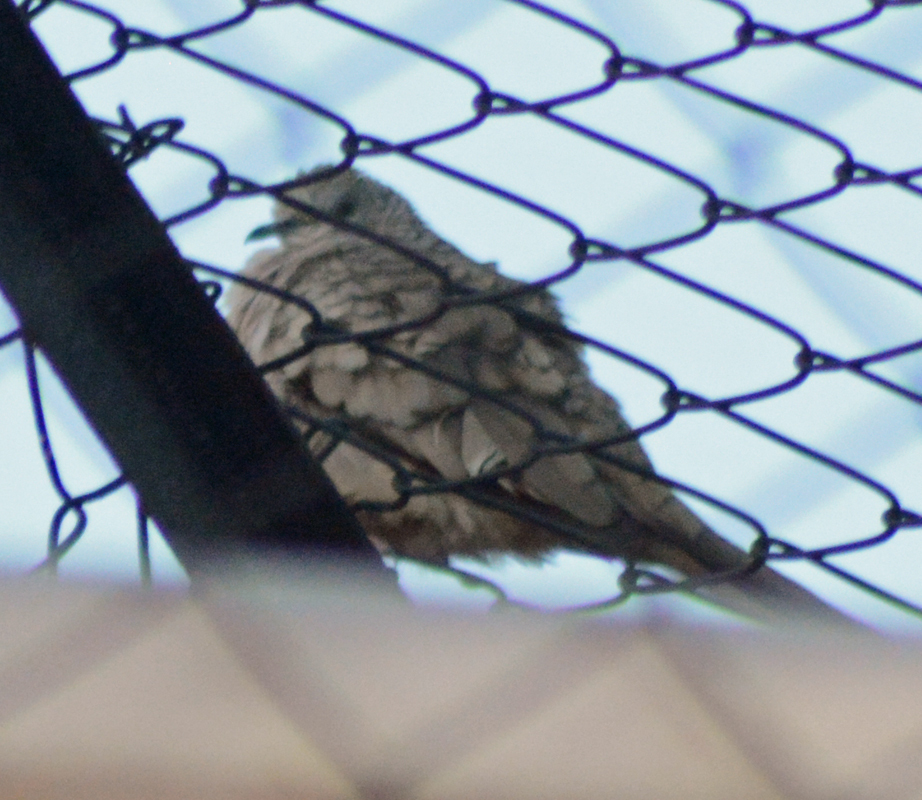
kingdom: Animalia
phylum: Chordata
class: Aves
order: Columbiformes
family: Columbidae
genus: Columbina
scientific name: Columbina inca
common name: Inca dove
